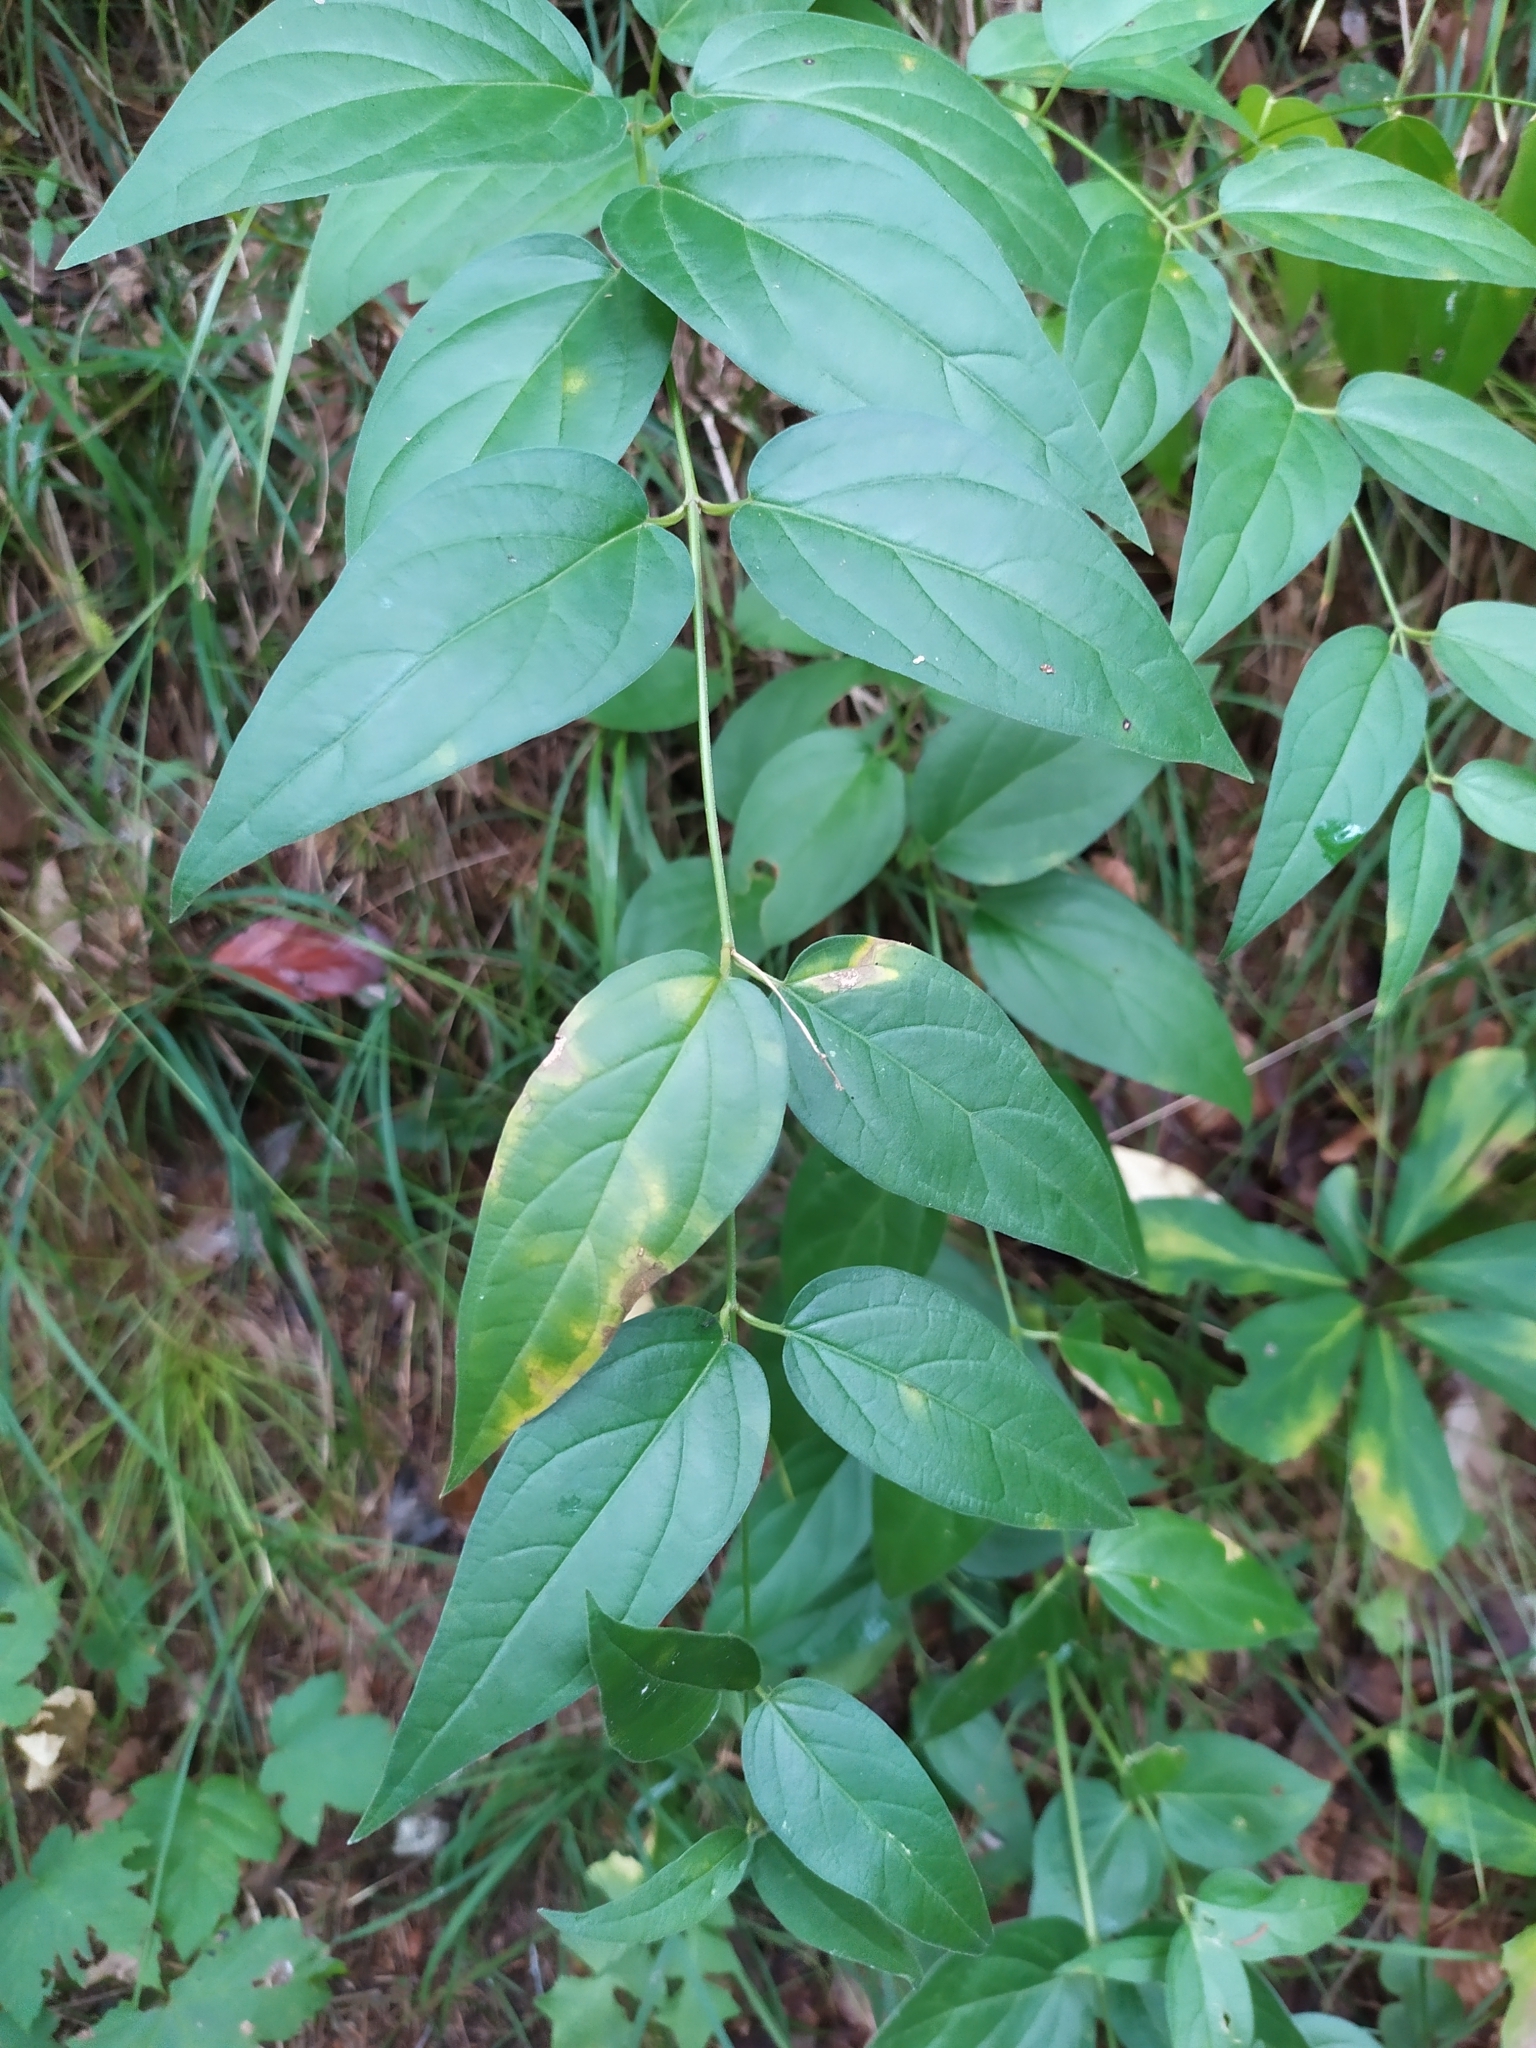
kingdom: Plantae
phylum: Tracheophyta
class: Magnoliopsida
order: Gentianales
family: Apocynaceae
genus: Vincetoxicum
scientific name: Vincetoxicum hirundinaria
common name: White swallowwort
